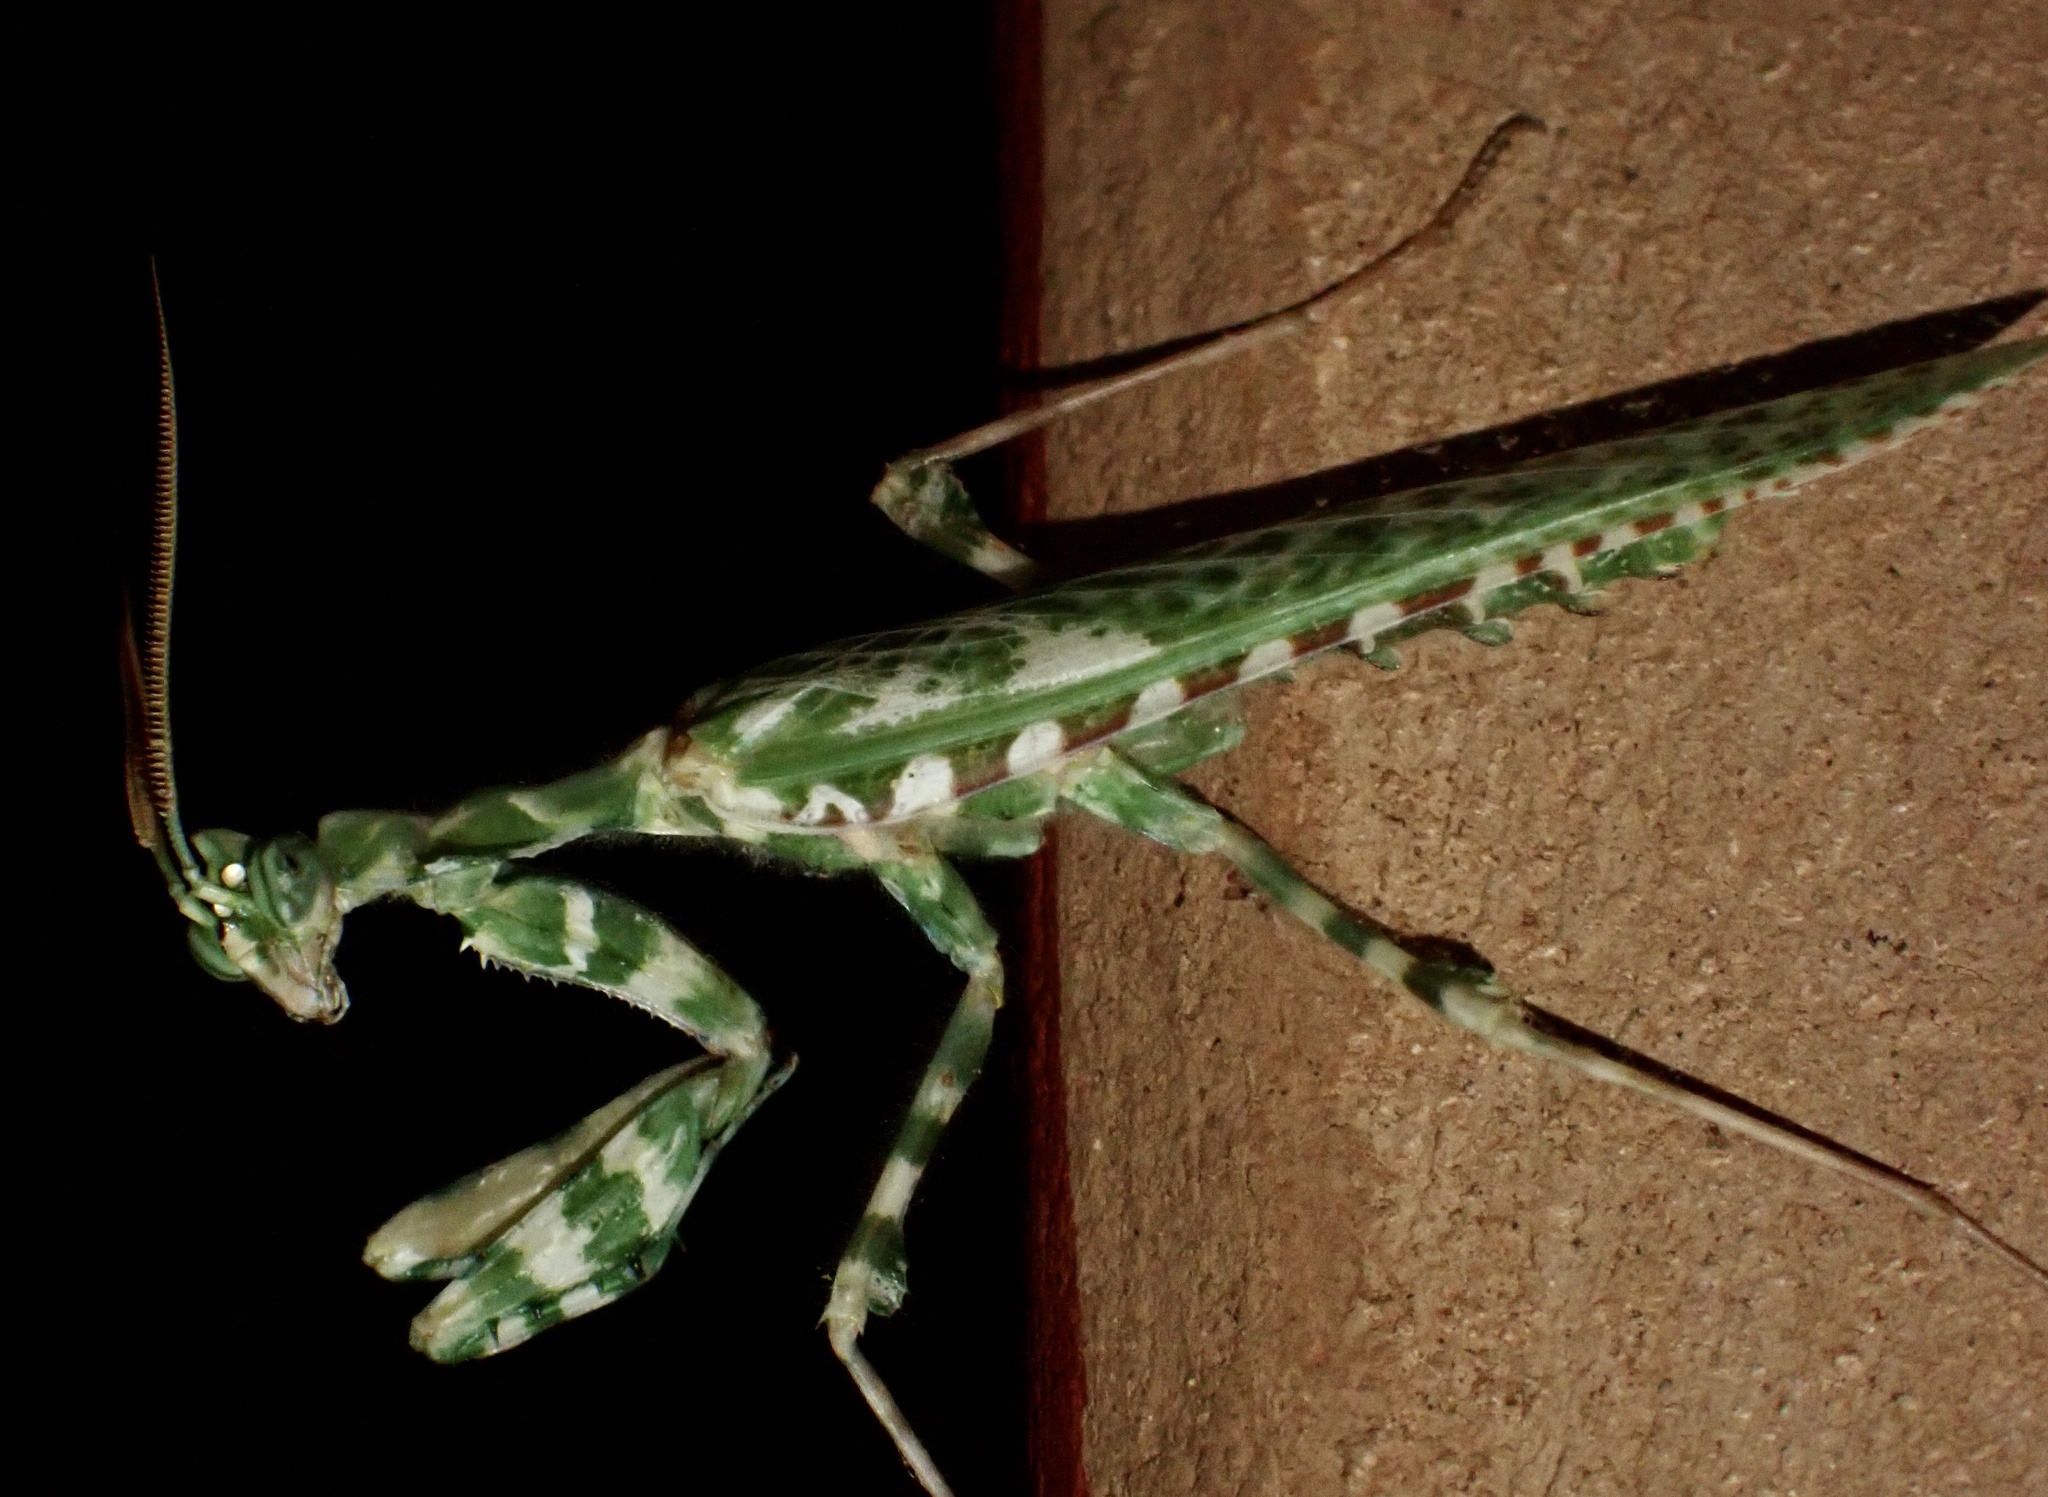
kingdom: Animalia
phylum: Arthropoda
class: Insecta
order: Mantodea
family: Empusidae
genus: Blepharopsis
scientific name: Blepharopsis mendica
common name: Devil's flower mantis
